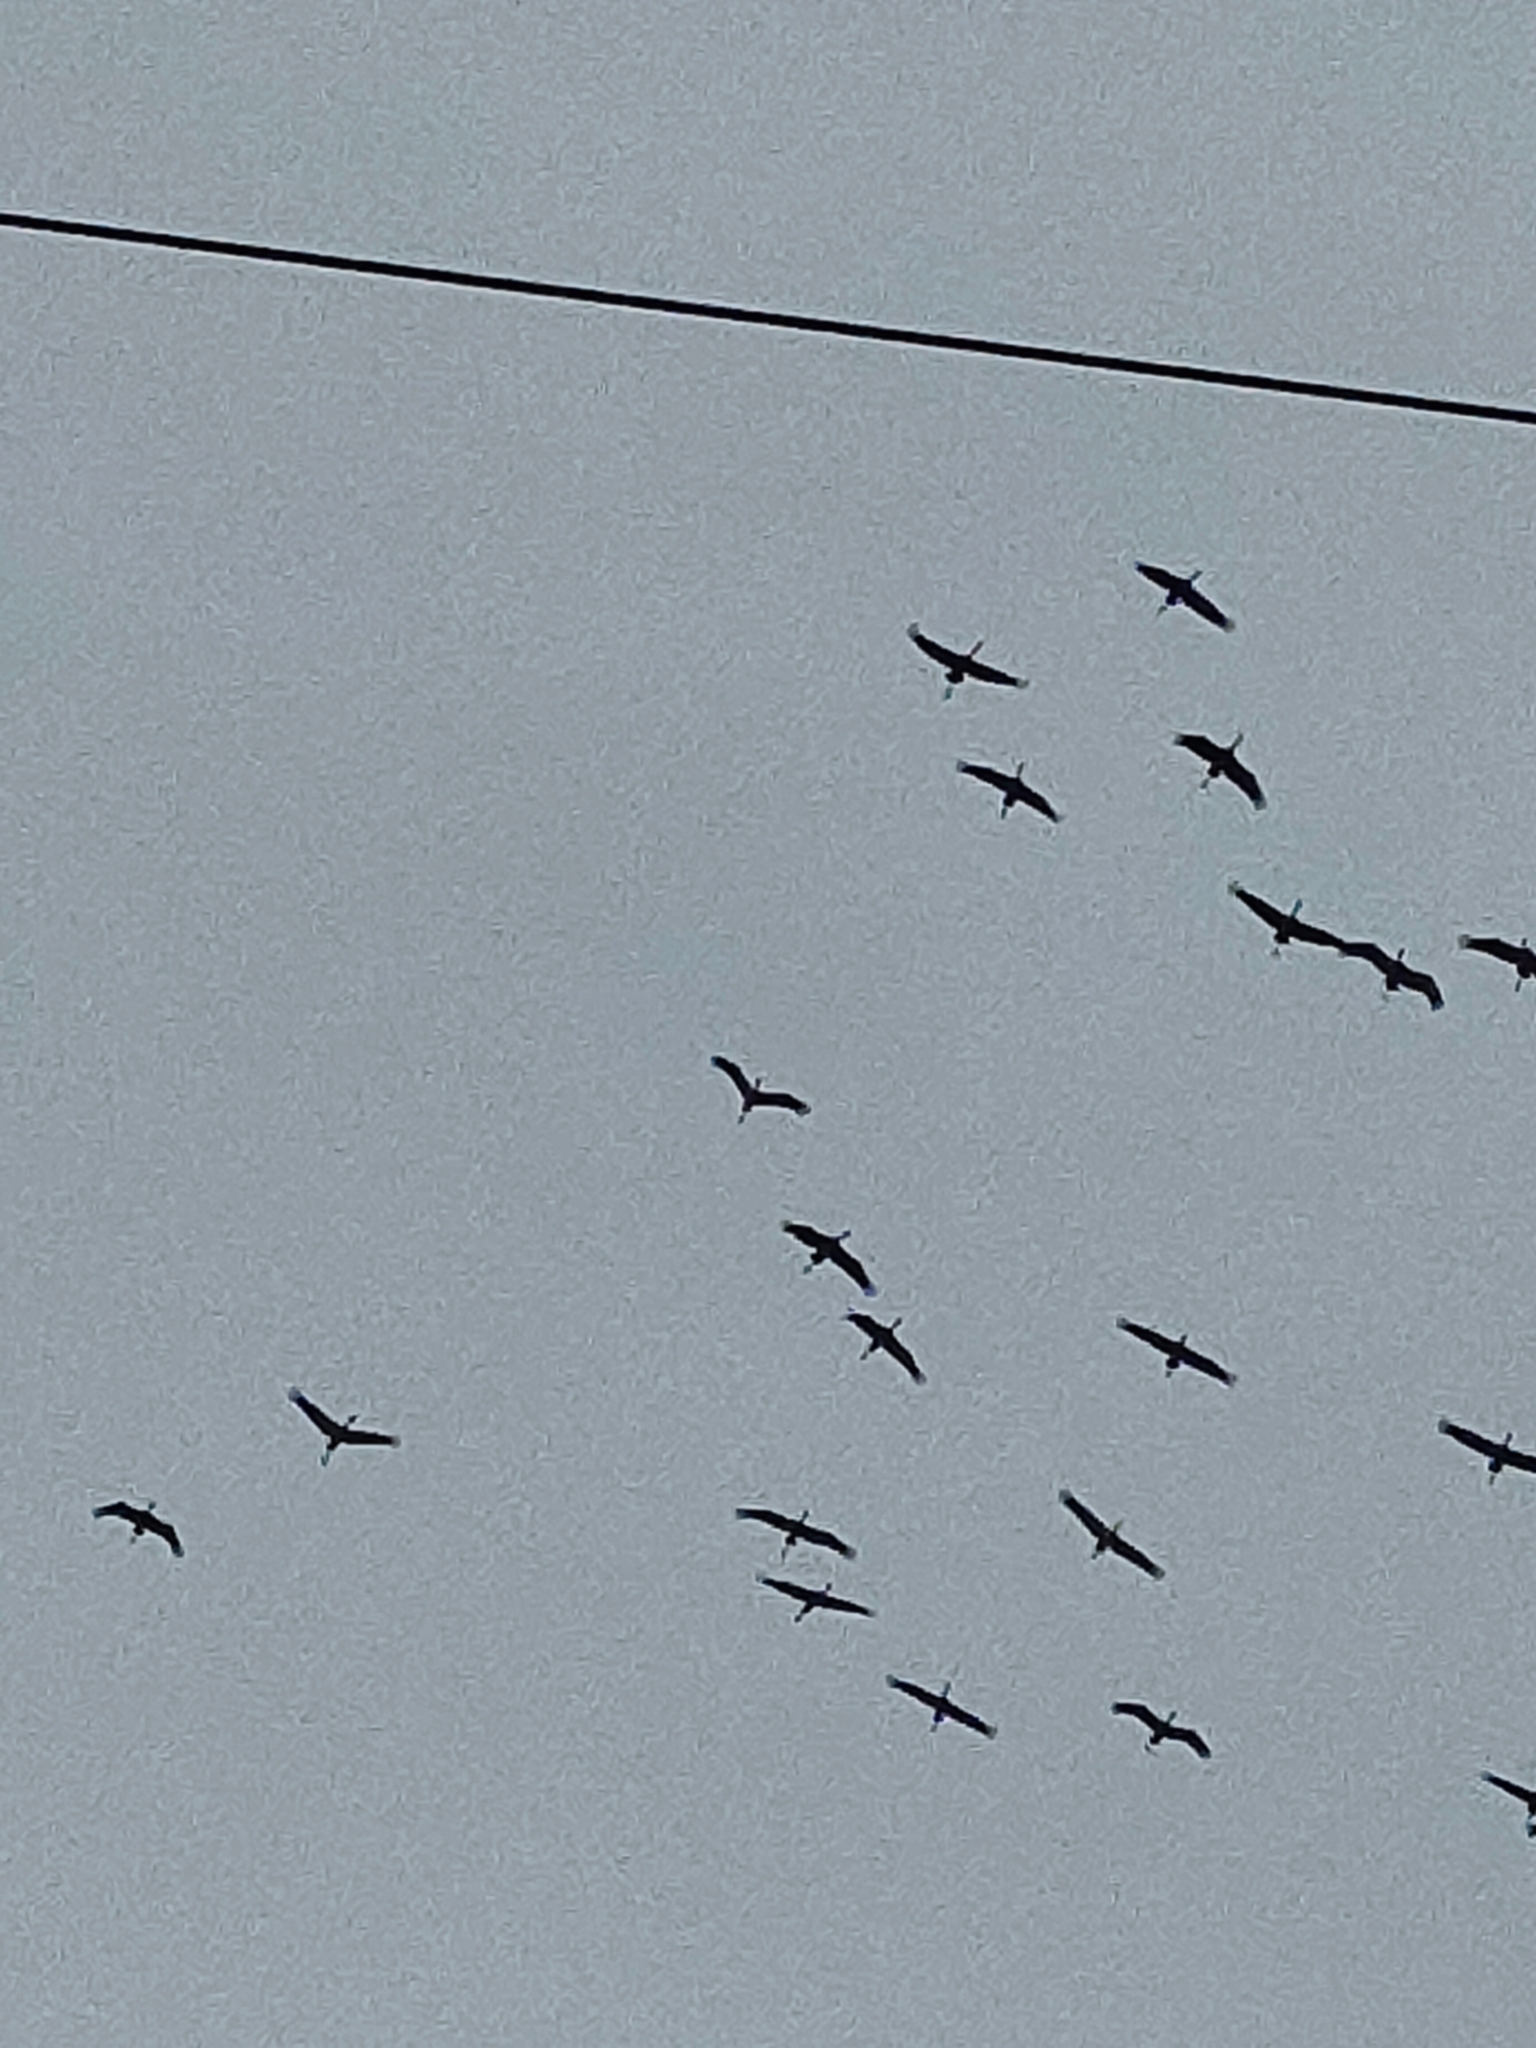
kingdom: Animalia
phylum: Chordata
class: Aves
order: Gruiformes
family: Gruidae
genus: Grus
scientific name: Grus grus
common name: Common crane
